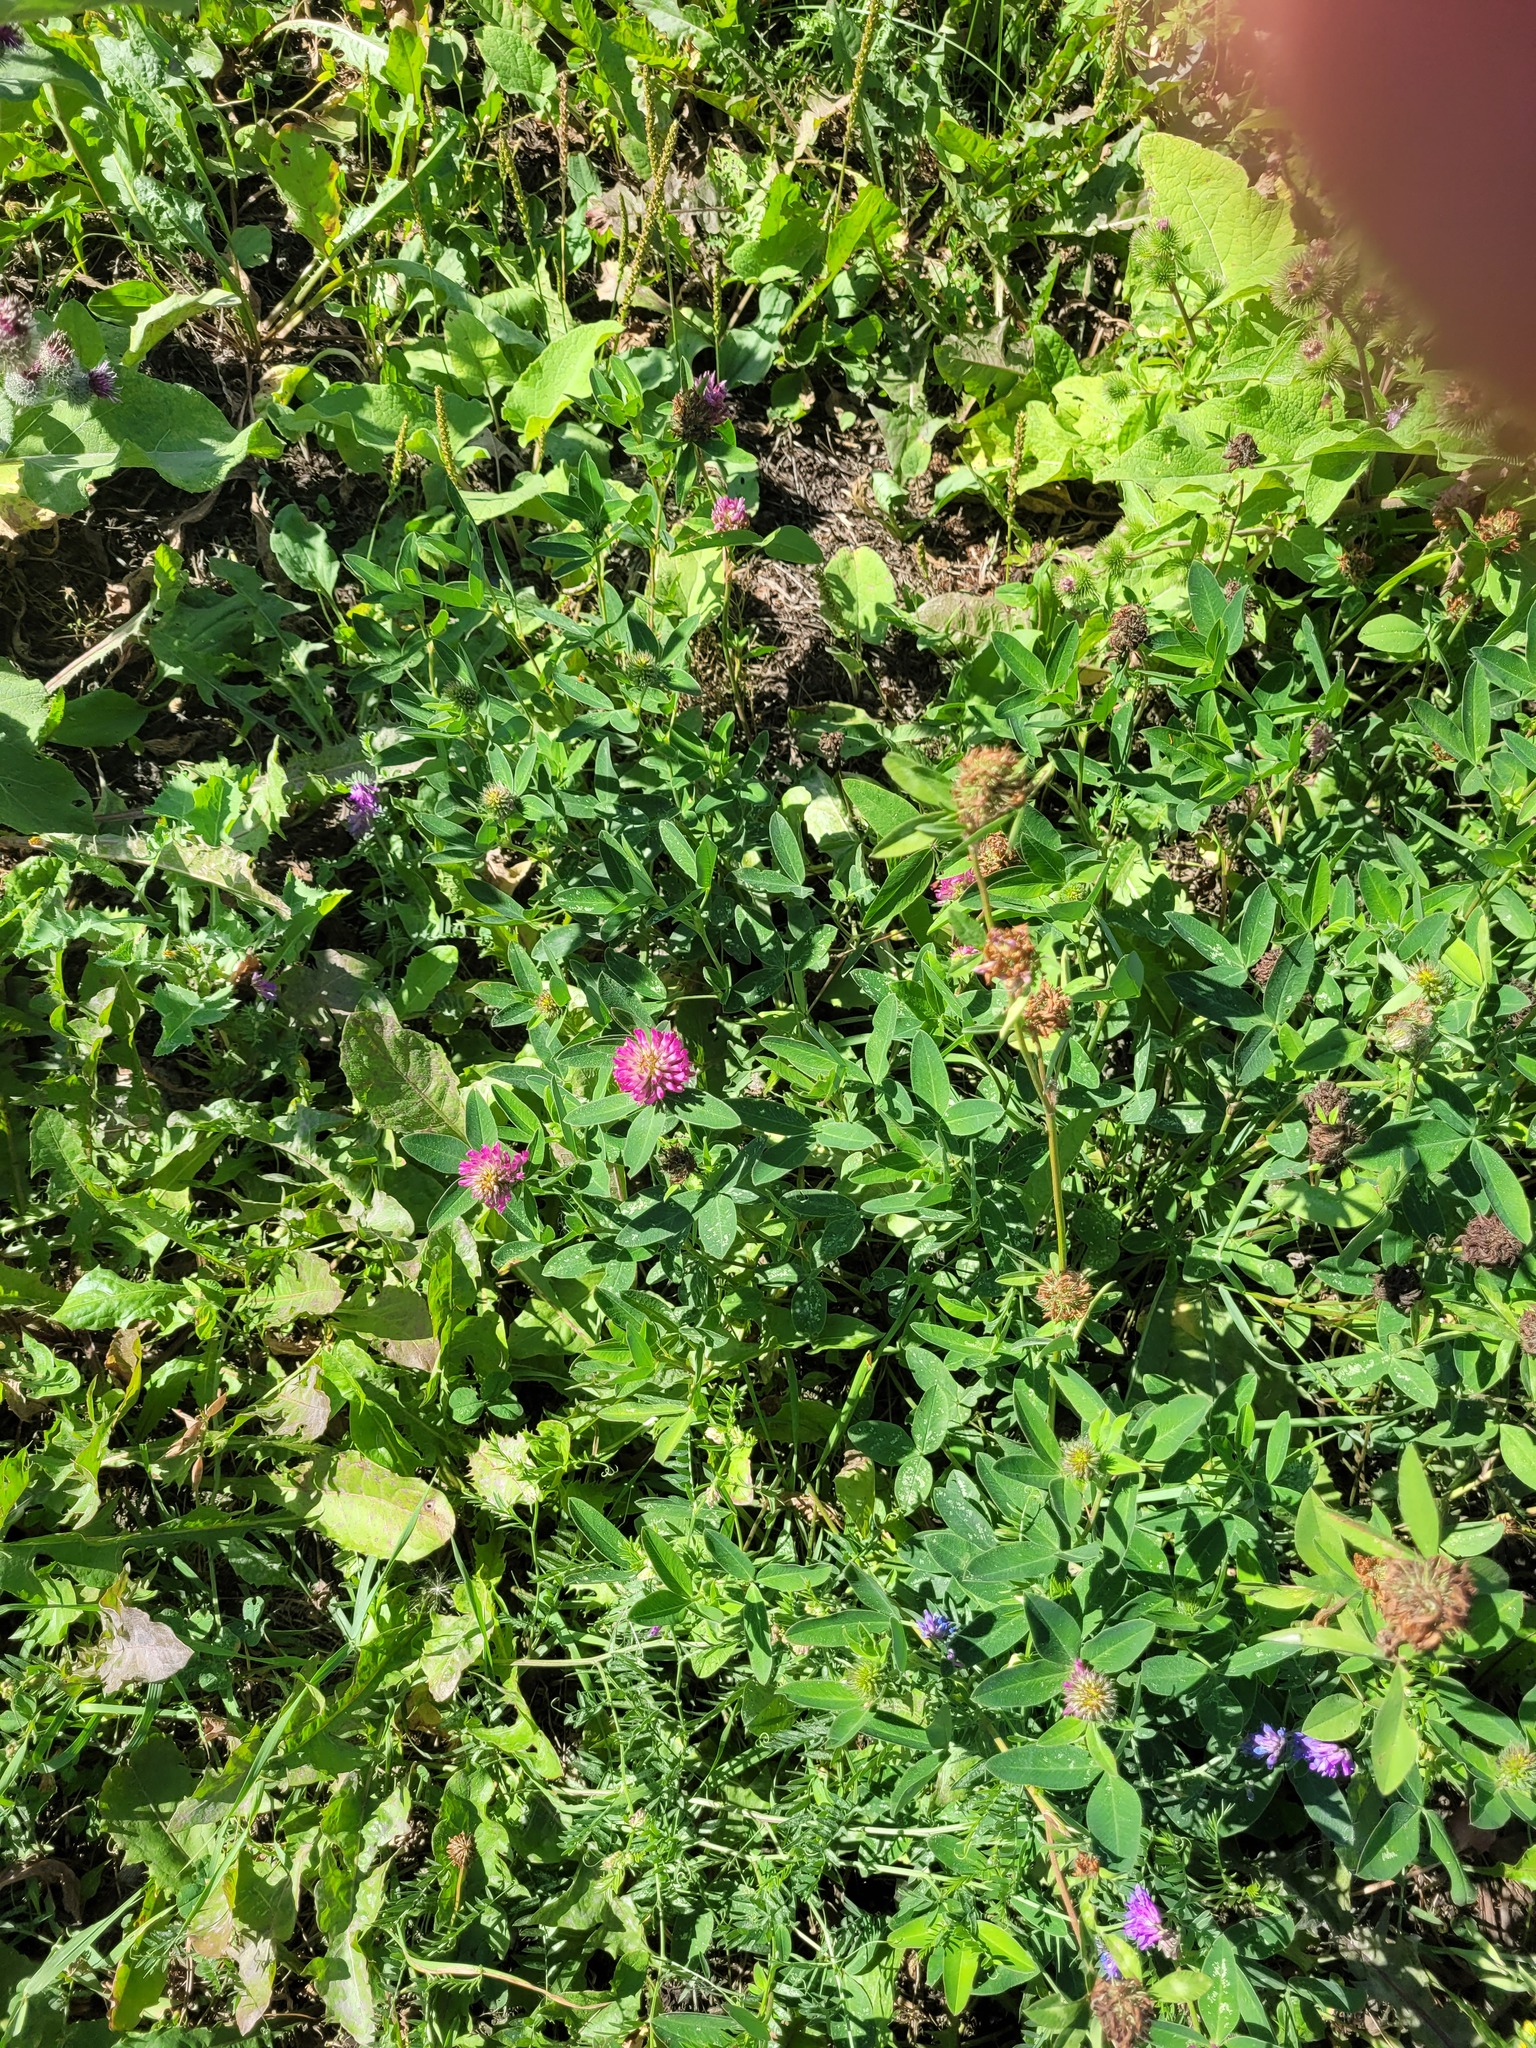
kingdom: Plantae
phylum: Tracheophyta
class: Magnoliopsida
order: Fabales
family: Fabaceae
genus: Trifolium
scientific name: Trifolium medium
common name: Zigzag clover
